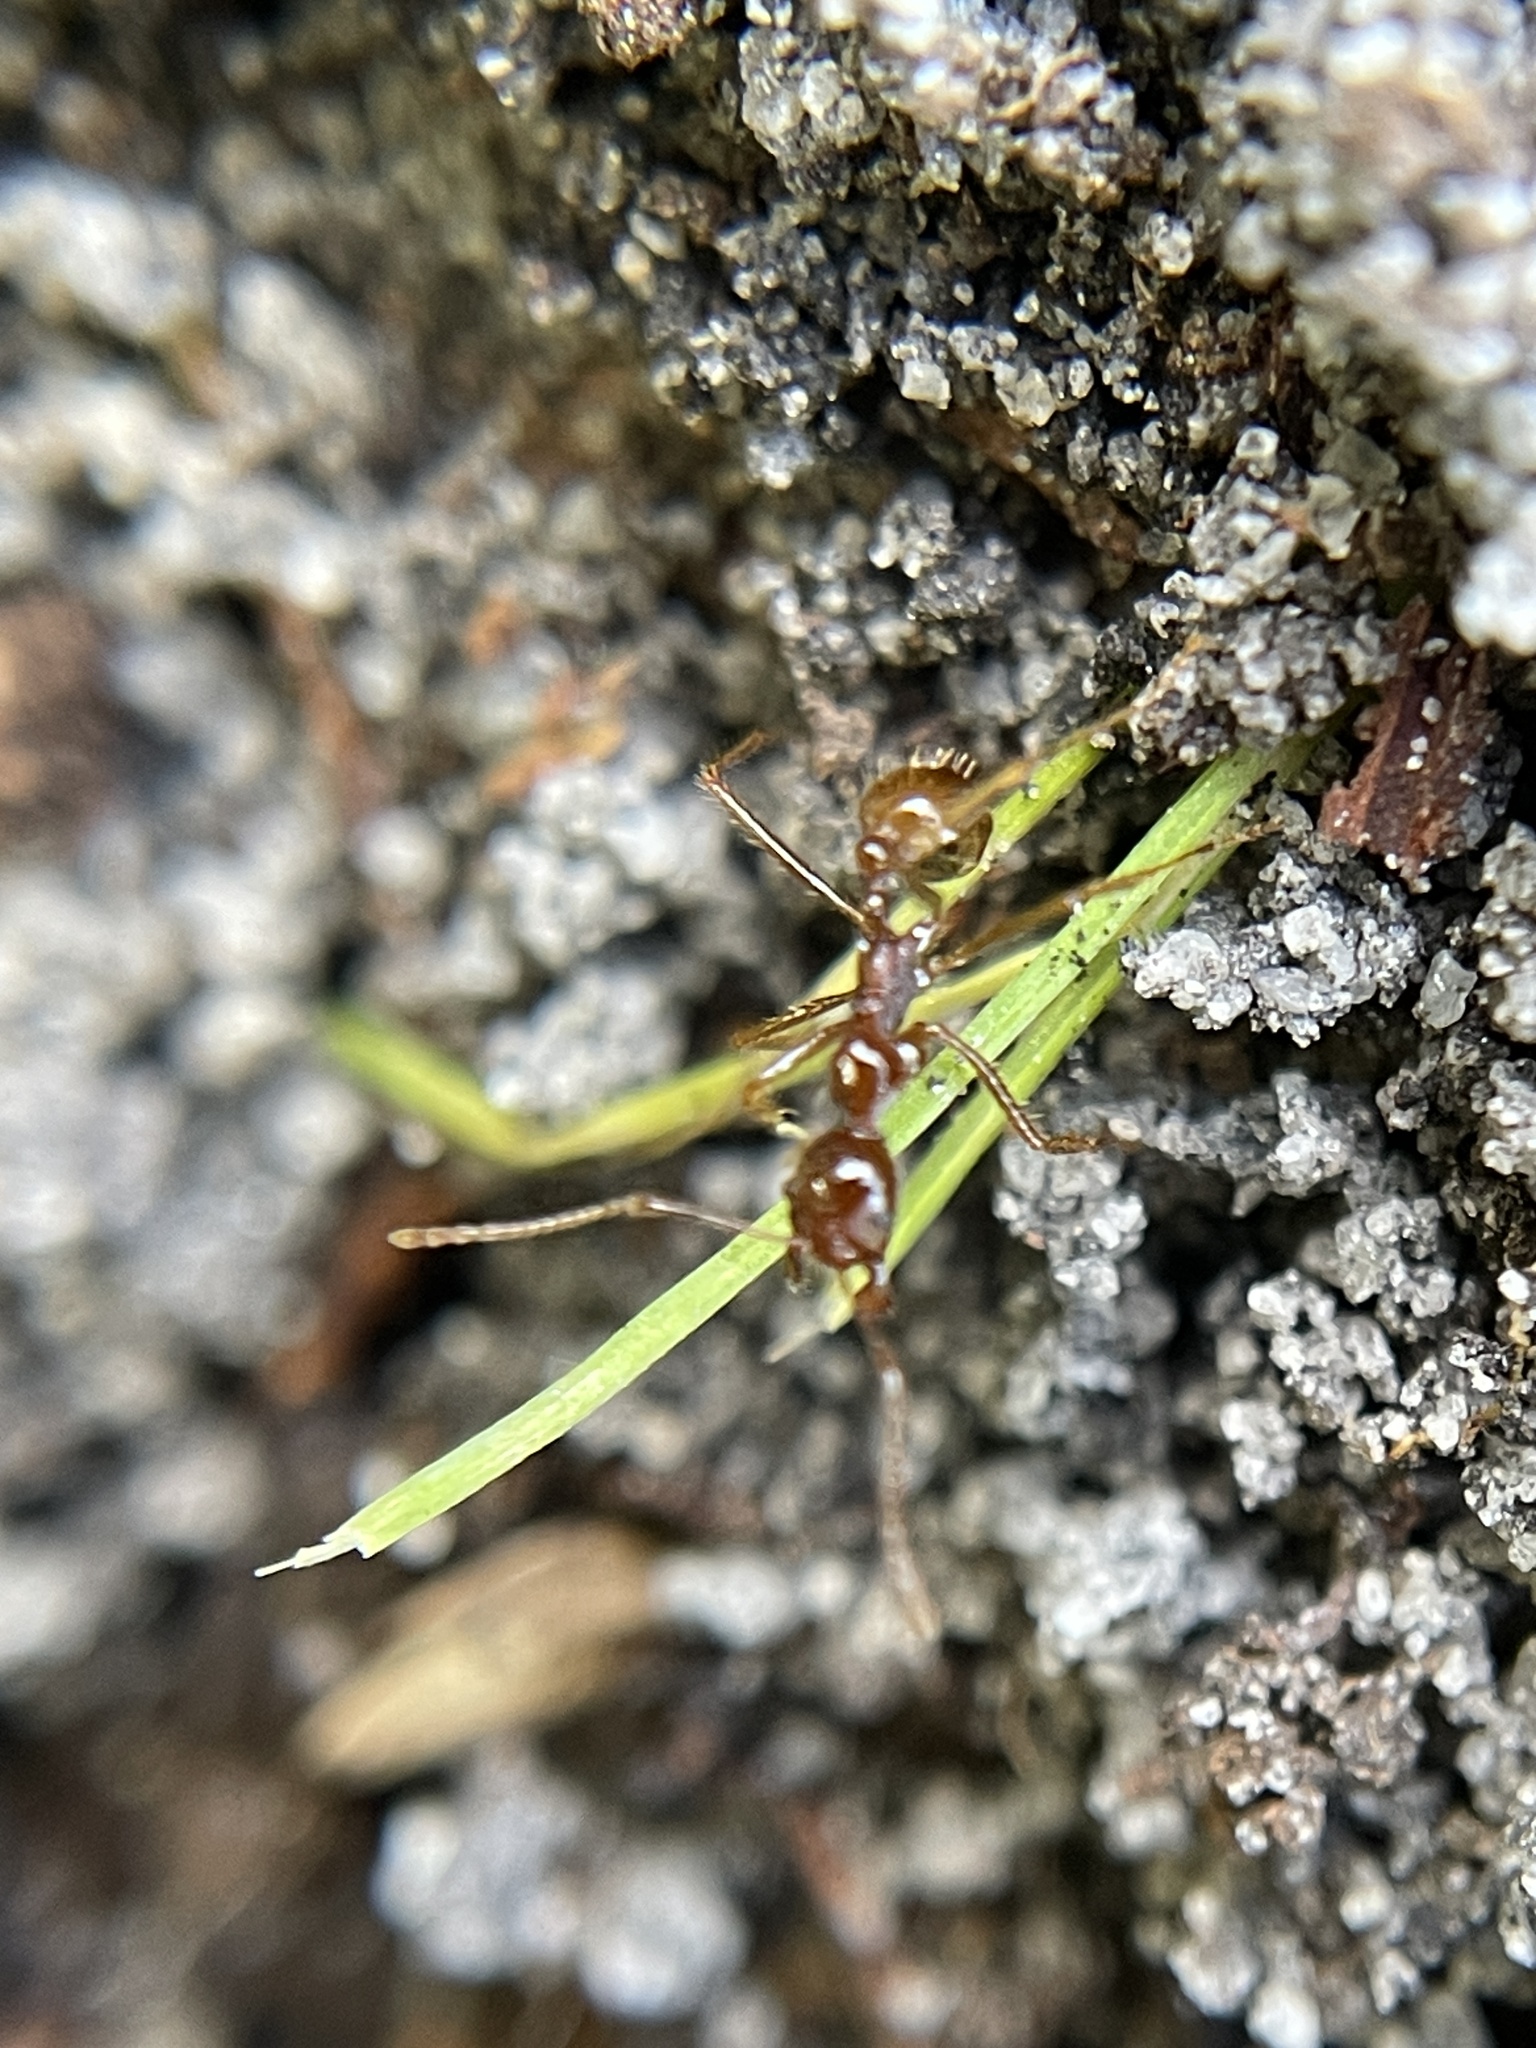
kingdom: Animalia
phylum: Arthropoda
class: Insecta
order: Hymenoptera
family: Formicidae
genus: Aphaenogaster
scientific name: Aphaenogaster longiceps
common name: Funnel ant
